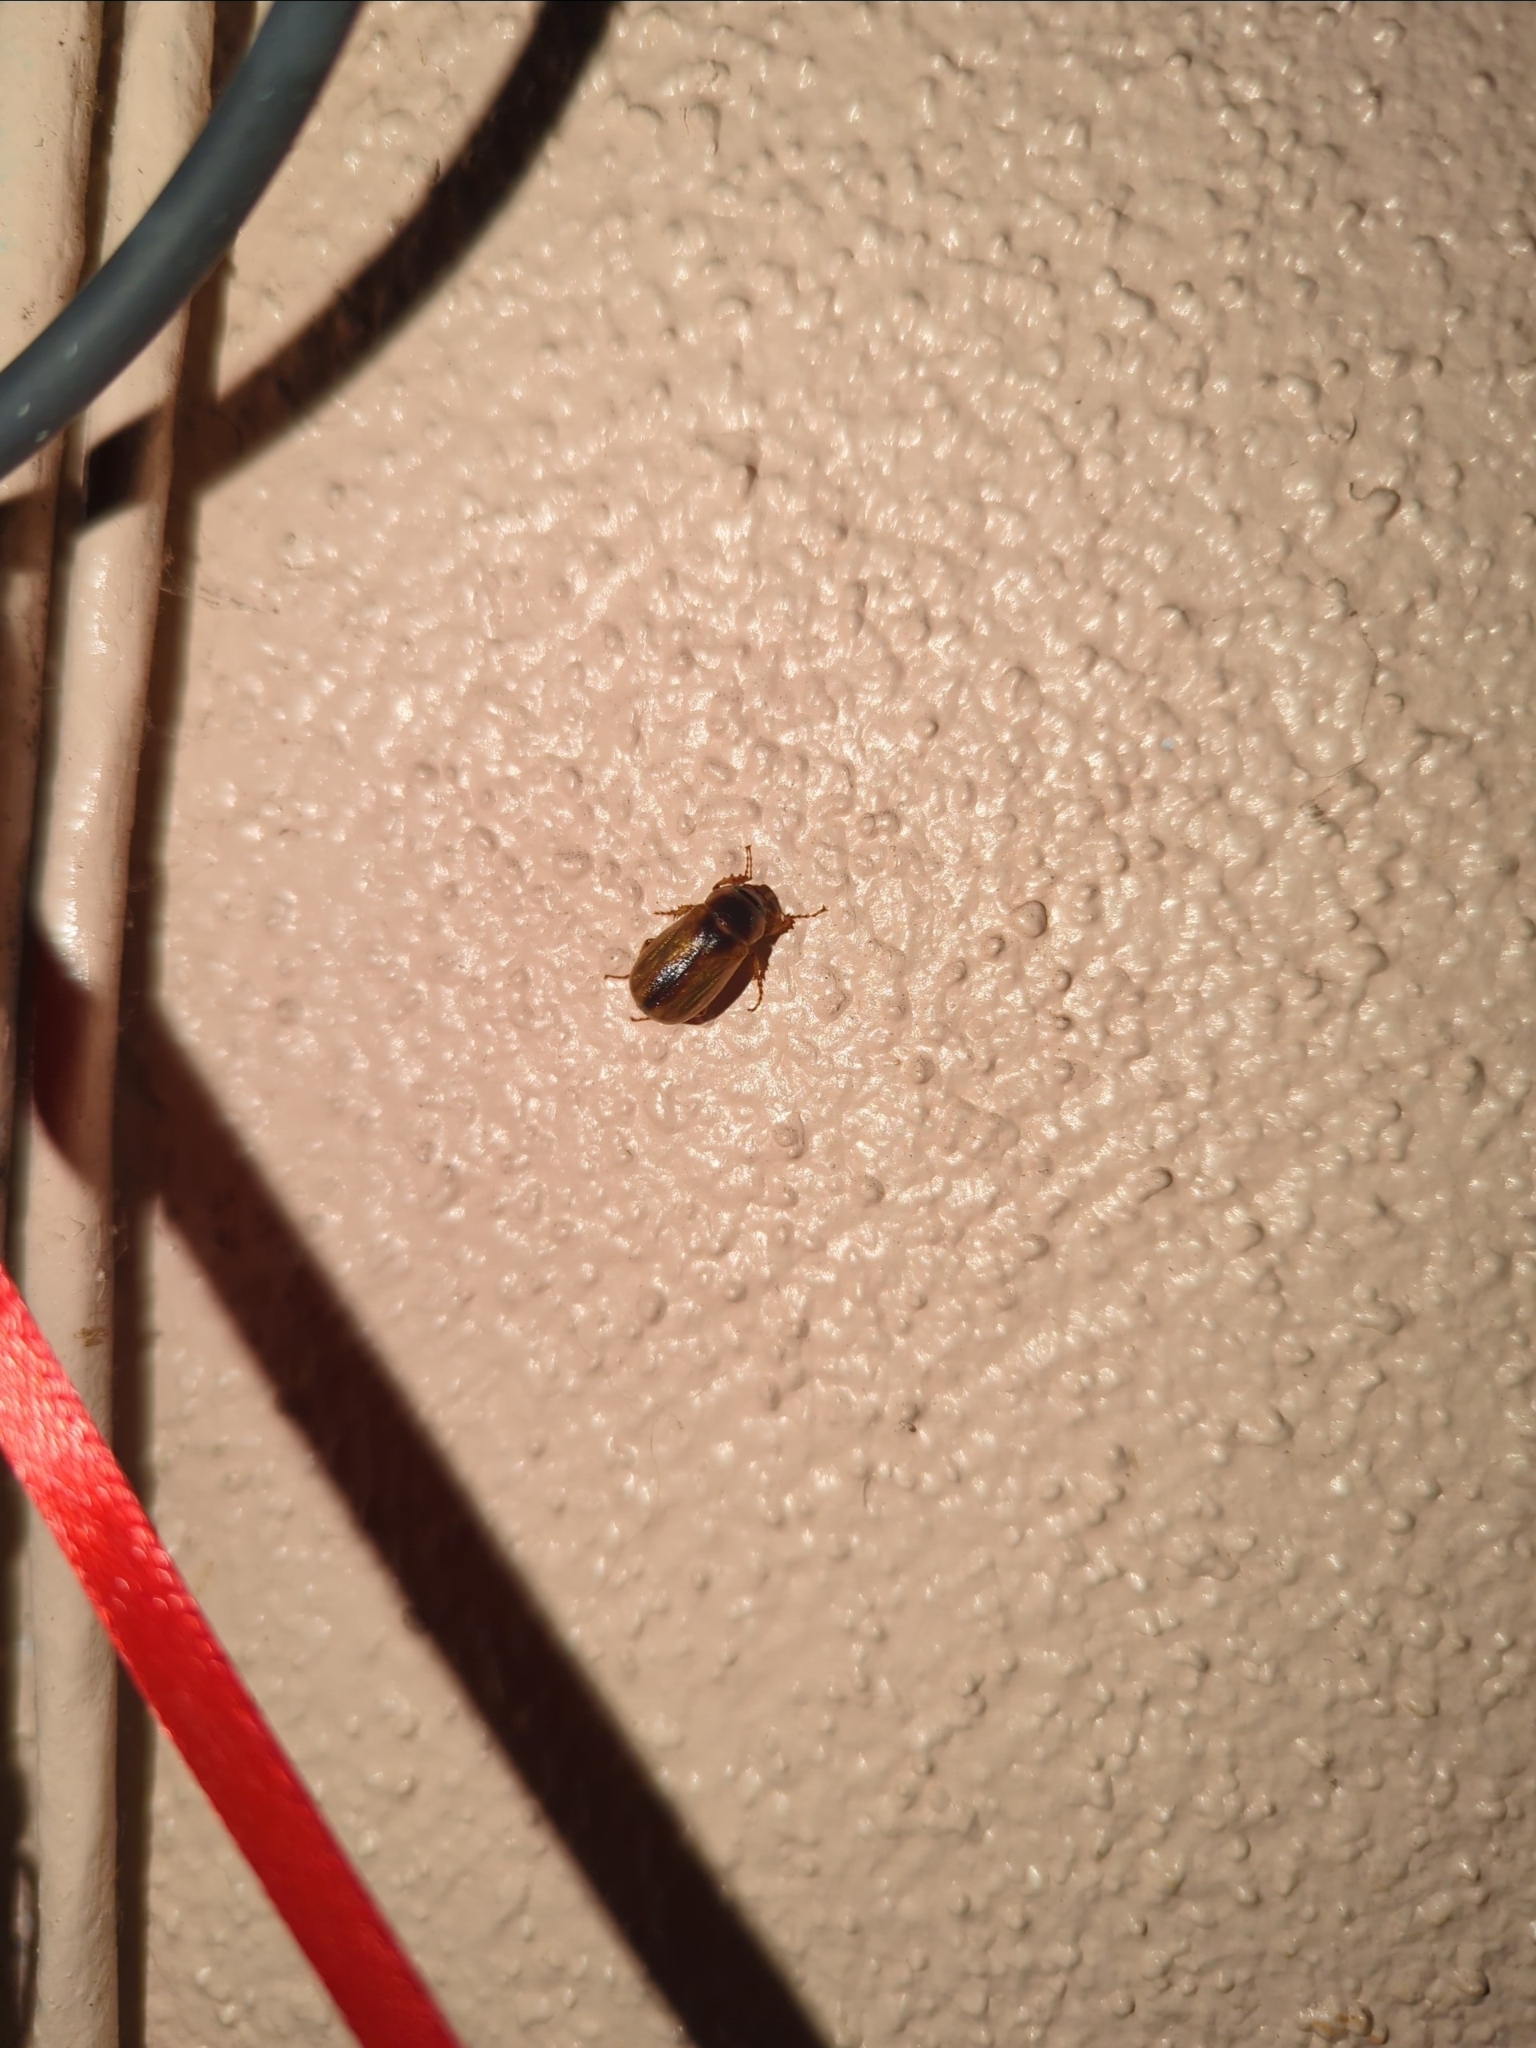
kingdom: Animalia
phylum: Arthropoda
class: Insecta
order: Coleoptera
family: Scarabaeidae
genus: Phyllophaga
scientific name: Phyllophaga bruneri
